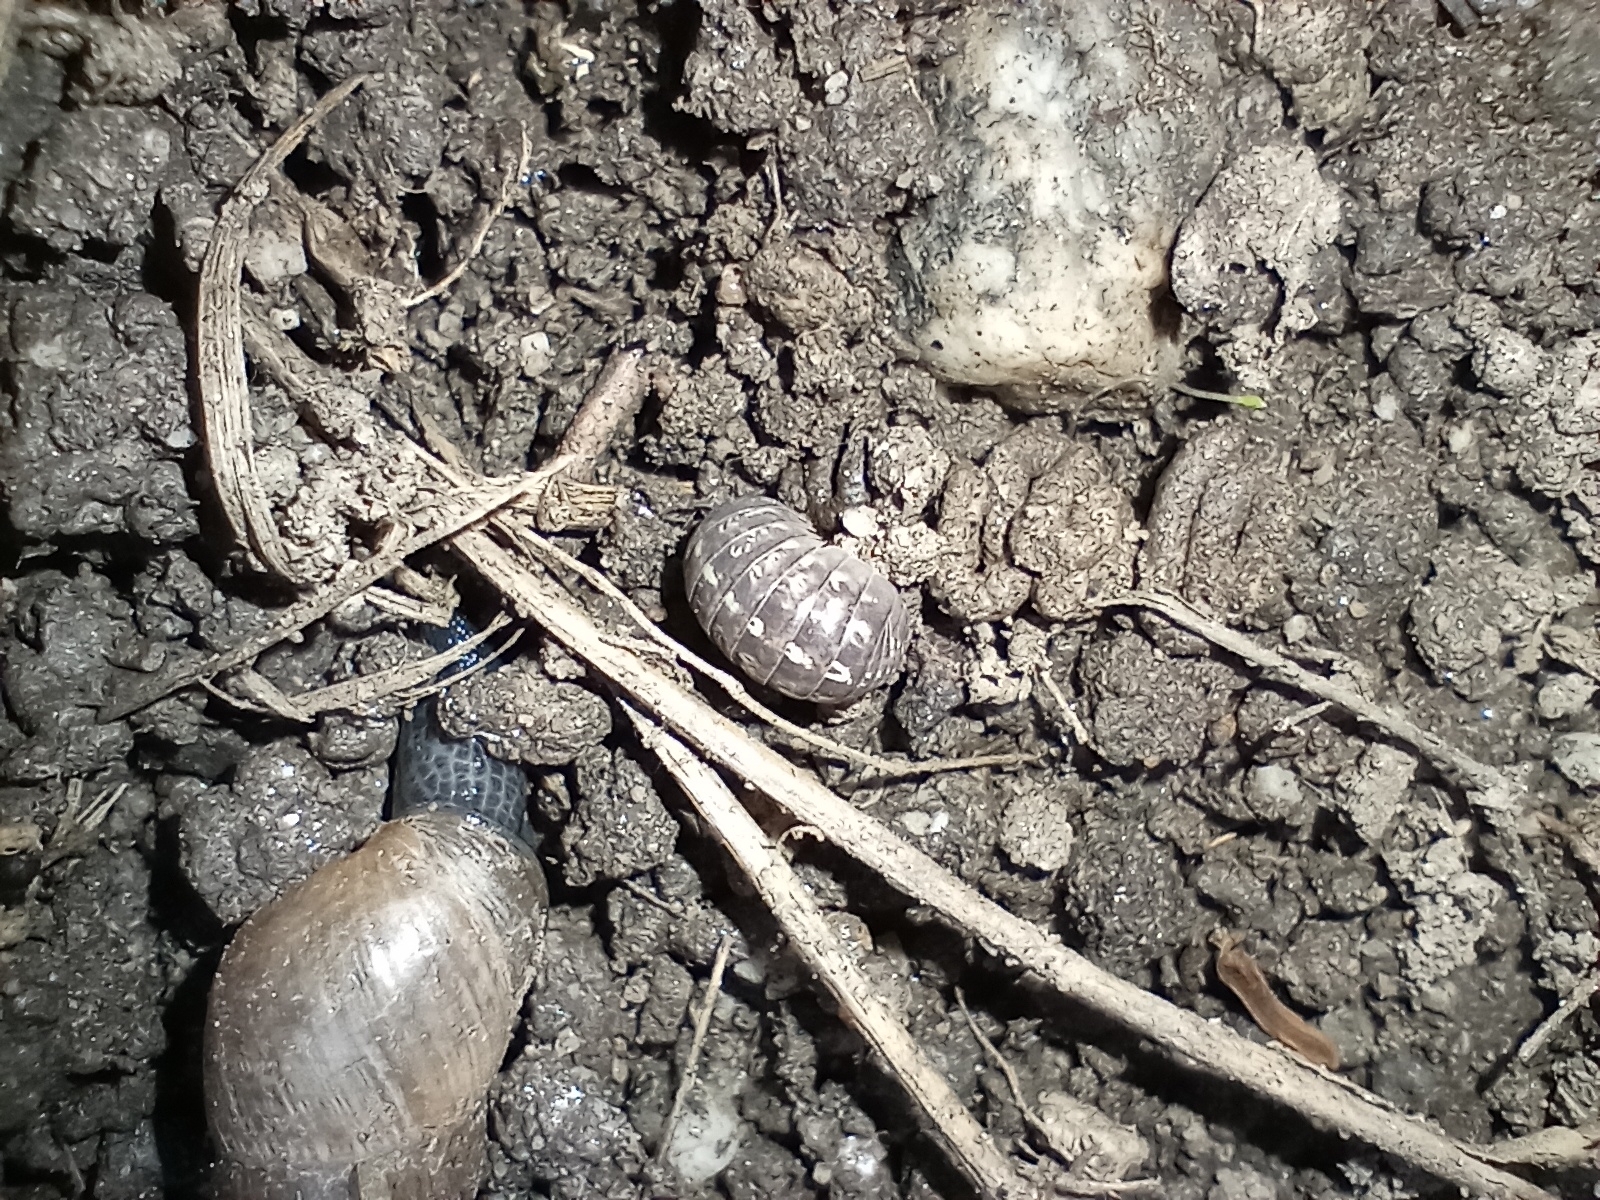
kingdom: Animalia
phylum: Arthropoda
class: Malacostraca
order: Isopoda
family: Armadillidiidae
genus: Armadillidium
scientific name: Armadillidium vulgare
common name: Common pill woodlouse
